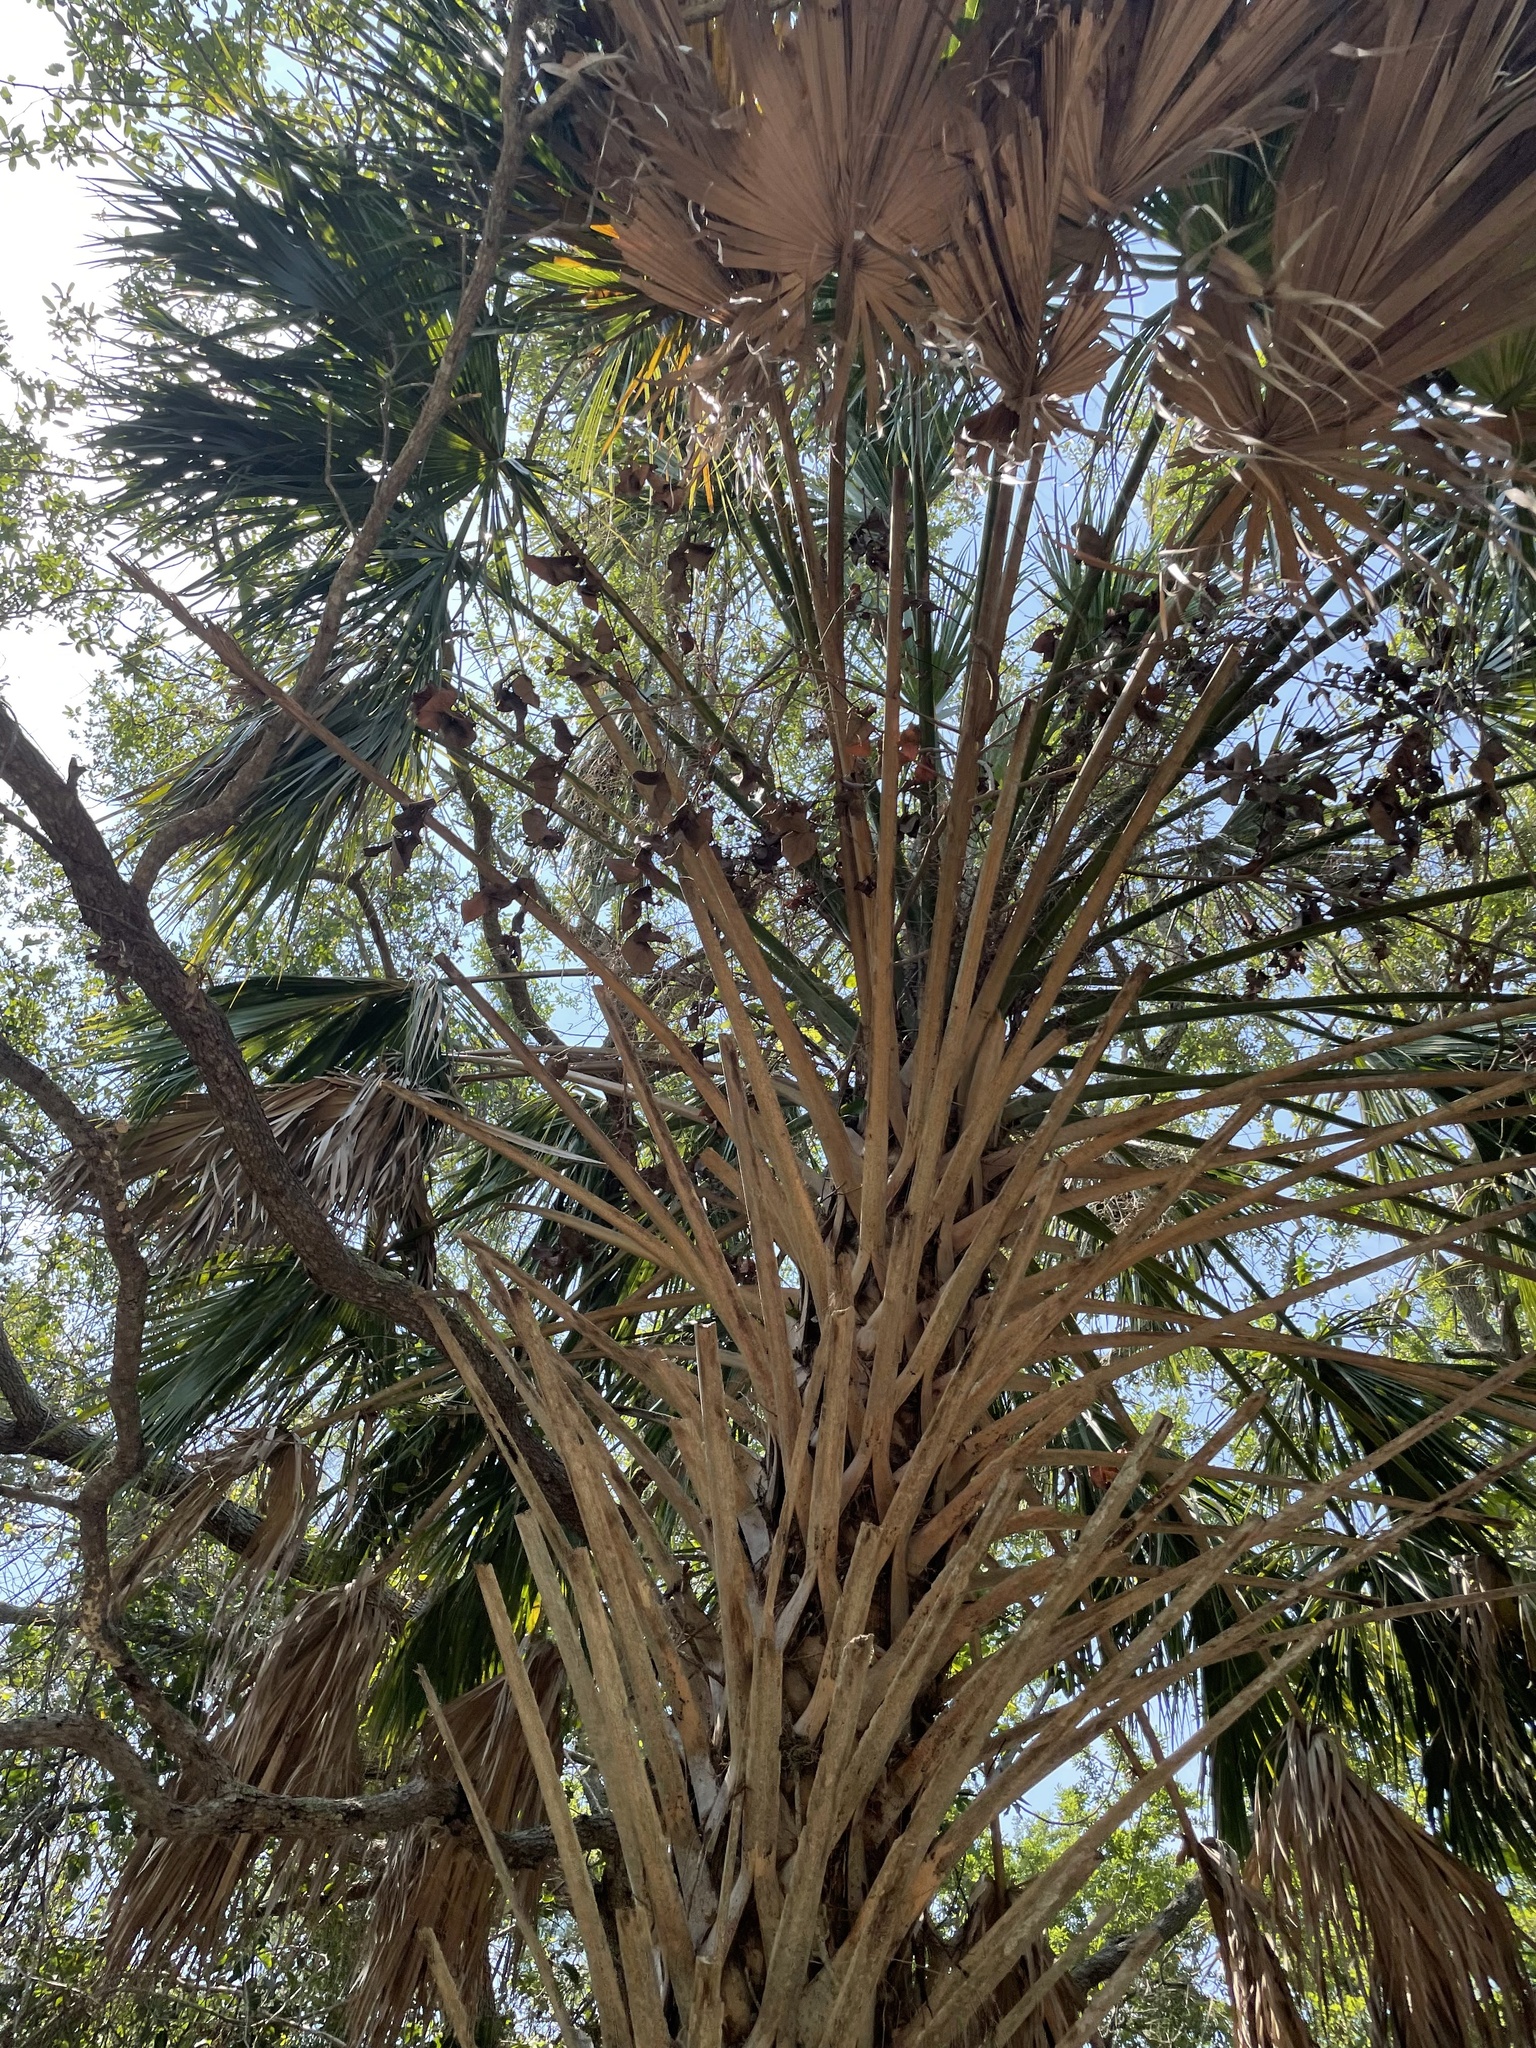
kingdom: Plantae
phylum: Tracheophyta
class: Liliopsida
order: Arecales
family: Arecaceae
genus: Sabal
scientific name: Sabal palmetto
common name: Blue palmetto
